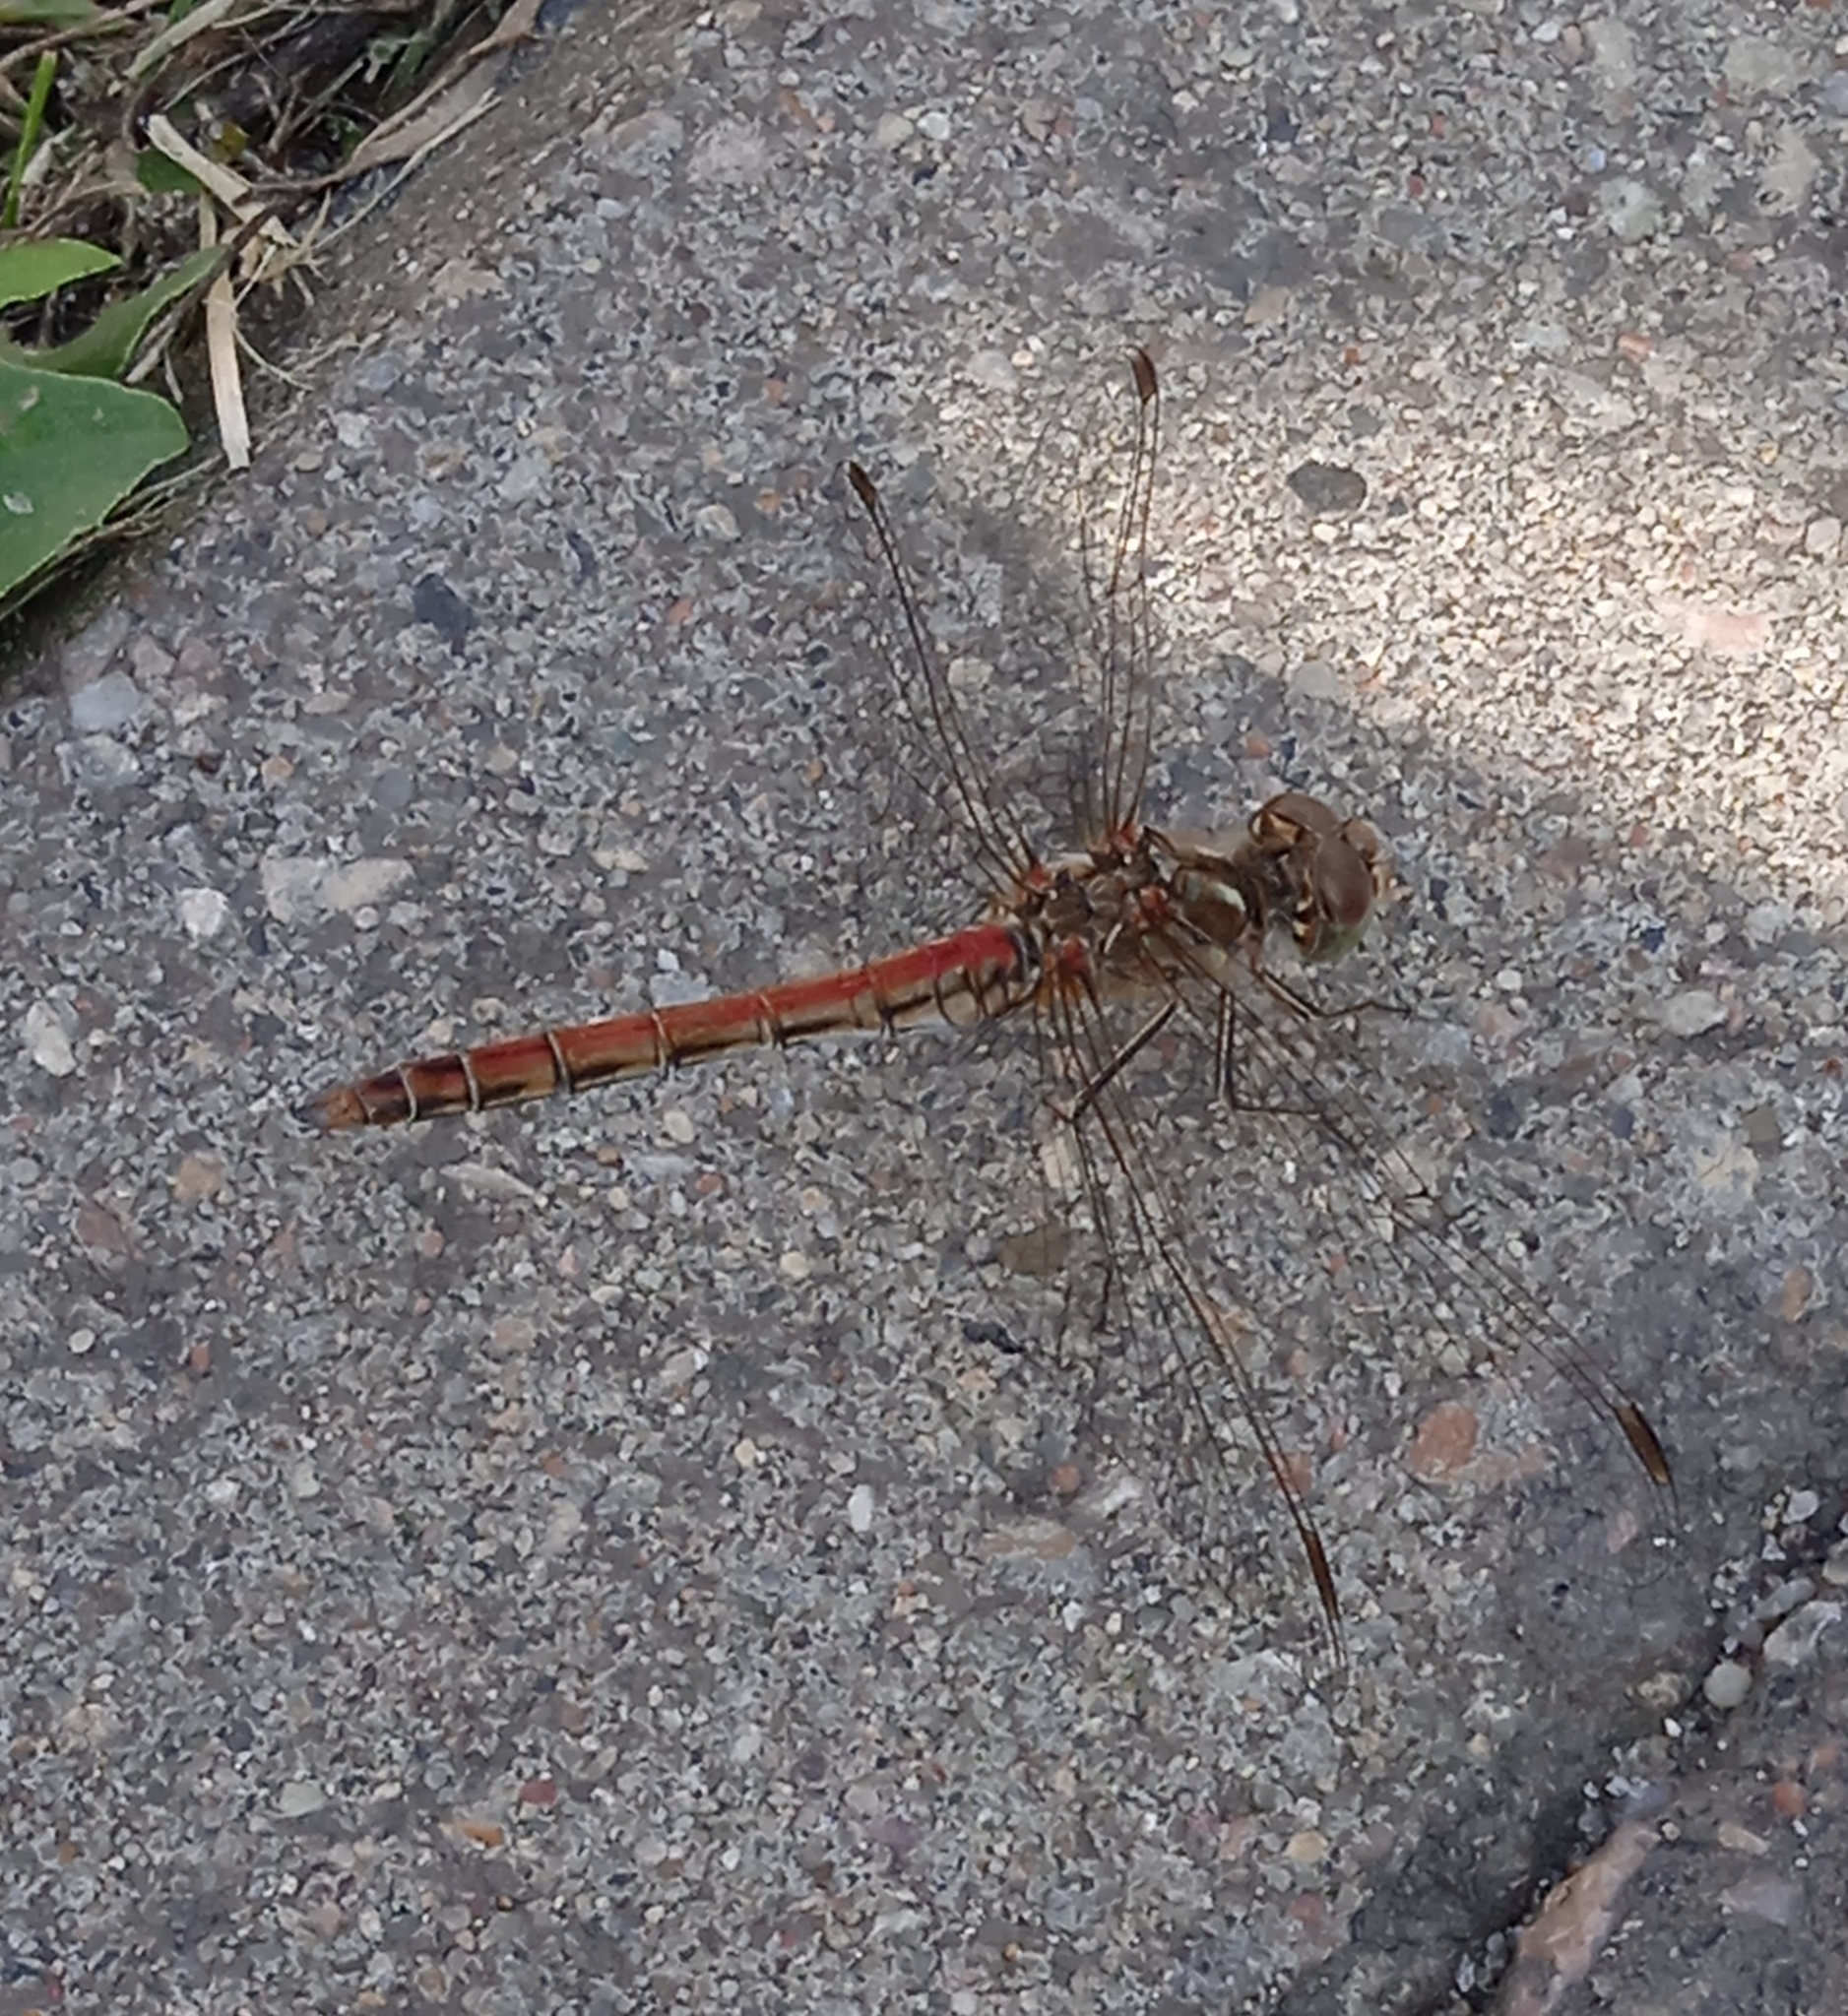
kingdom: Animalia
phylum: Arthropoda
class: Insecta
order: Odonata
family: Libellulidae
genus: Sympetrum
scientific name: Sympetrum vulgatum
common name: Vagrant darter
